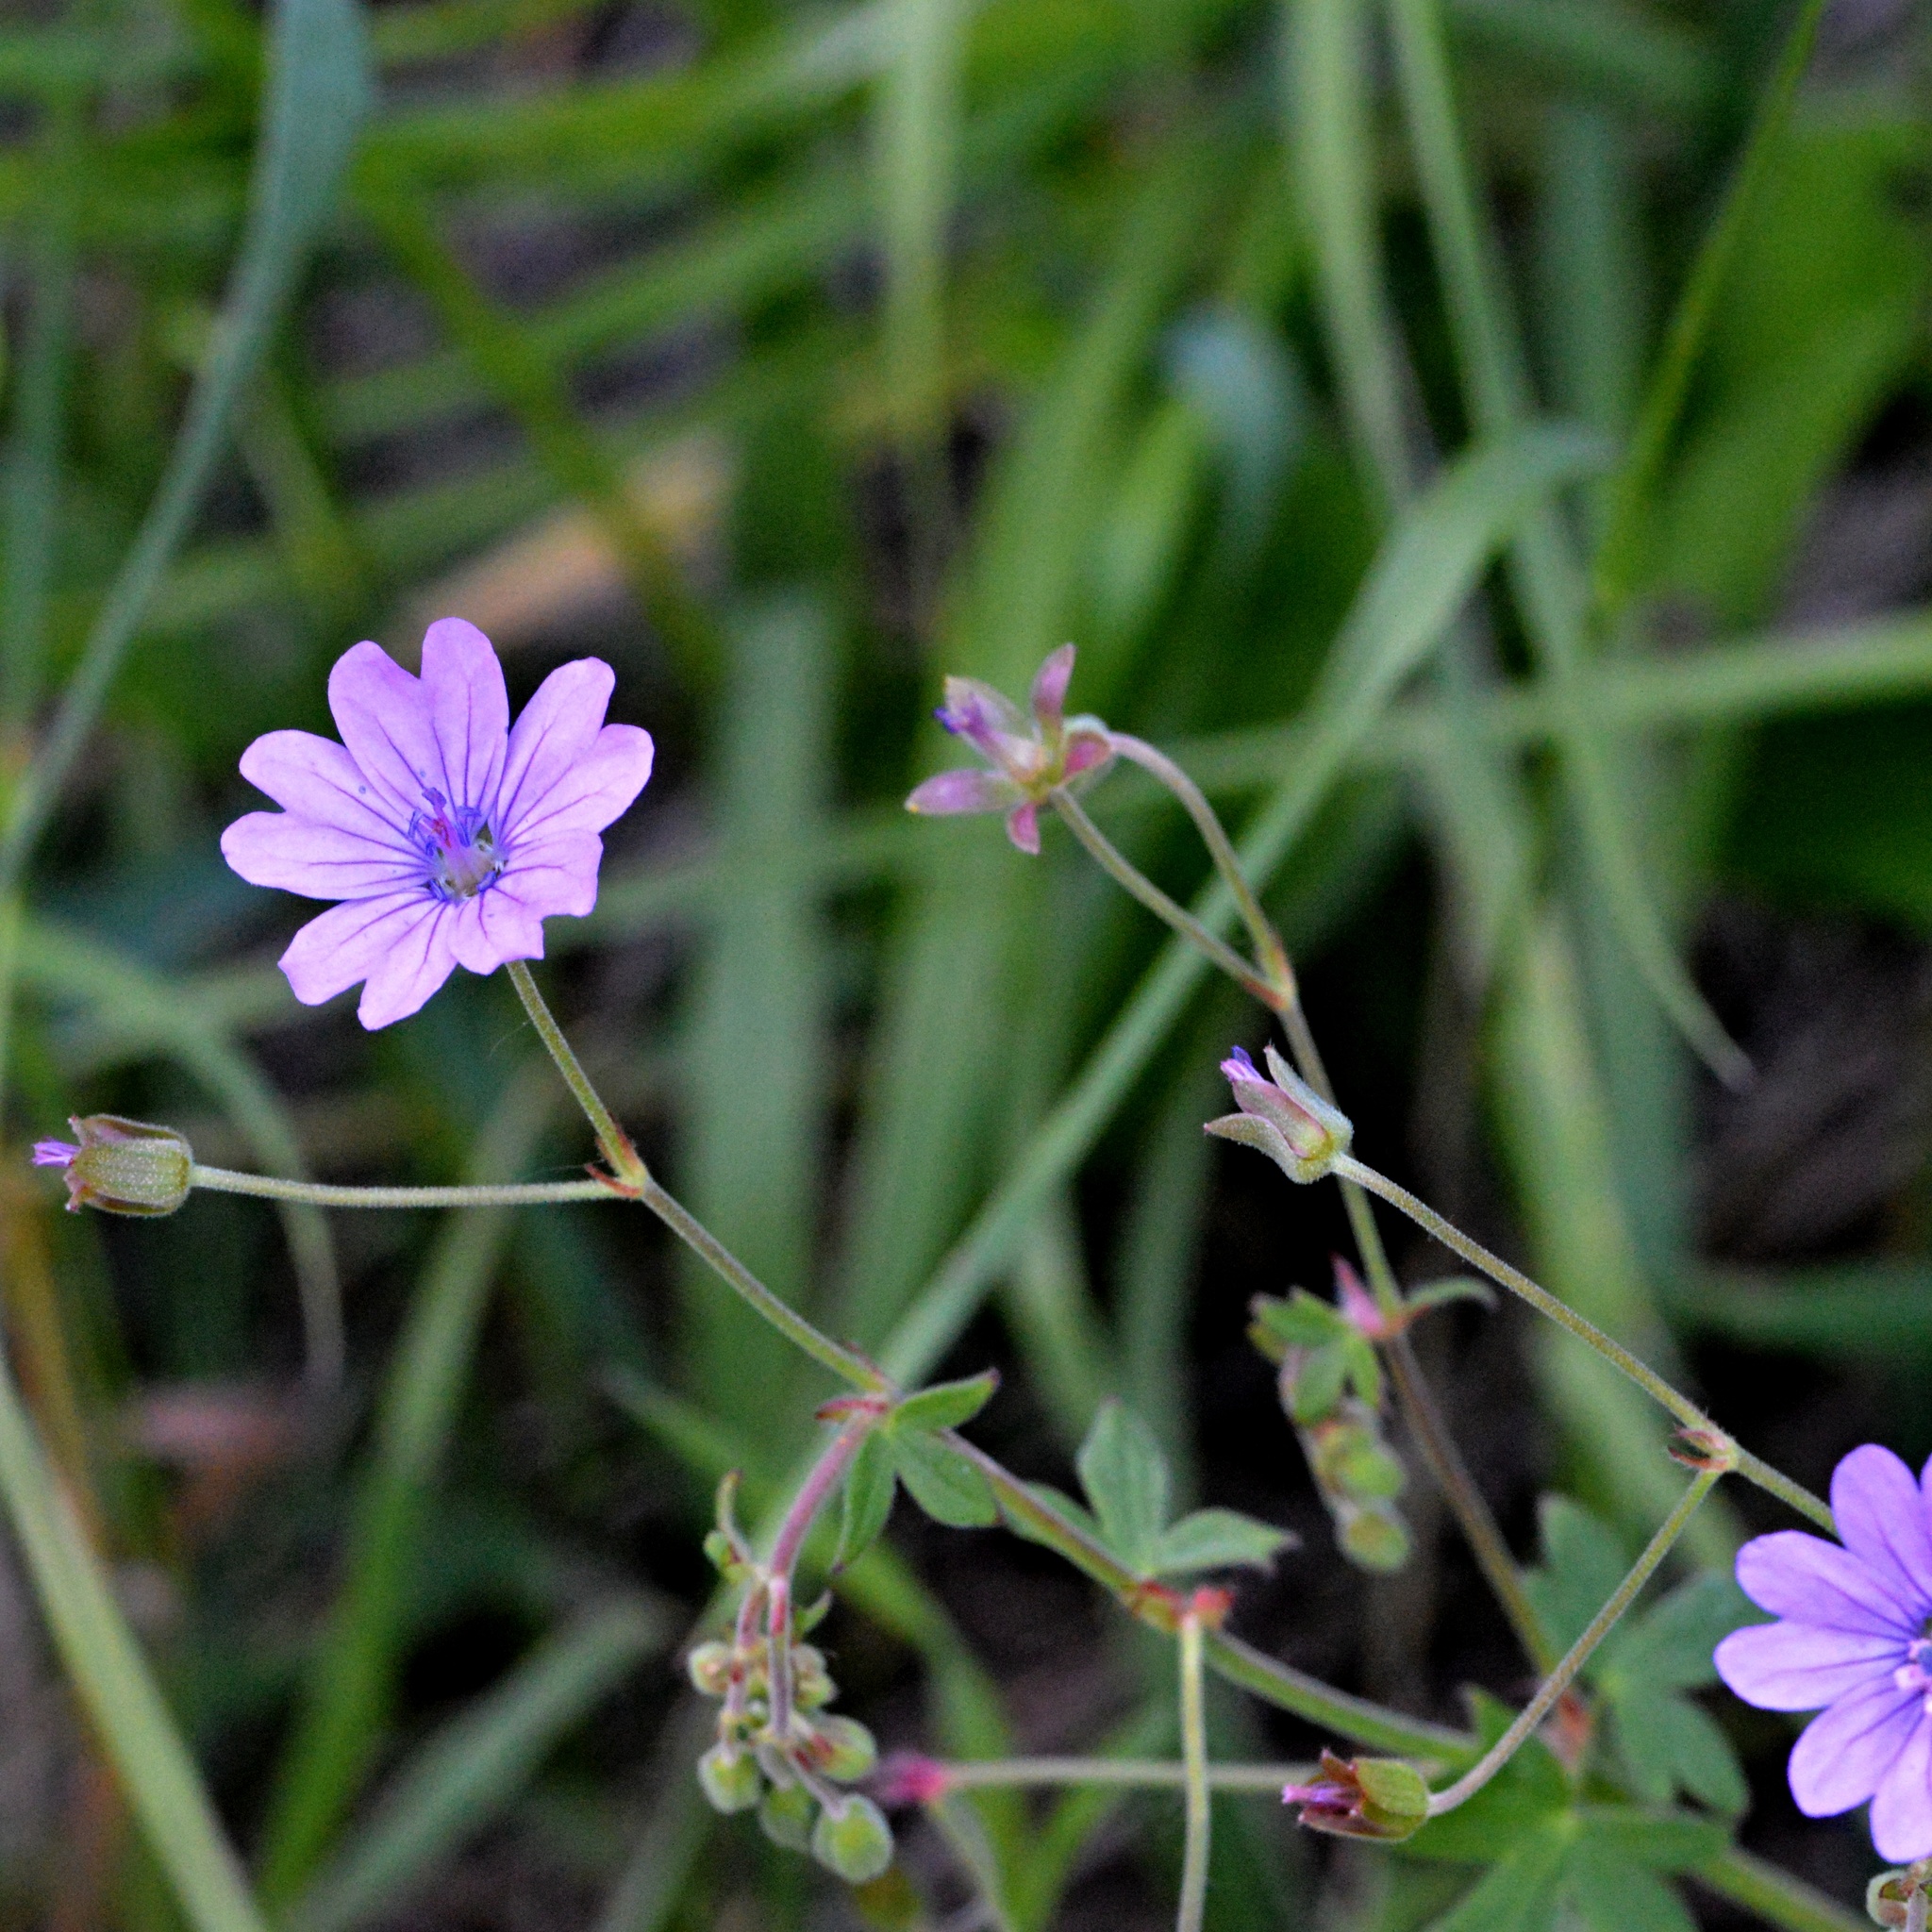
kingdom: Plantae
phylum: Tracheophyta
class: Magnoliopsida
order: Geraniales
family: Geraniaceae
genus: Geranium
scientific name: Geranium pyrenaicum
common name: Hedgerow crane's-bill
